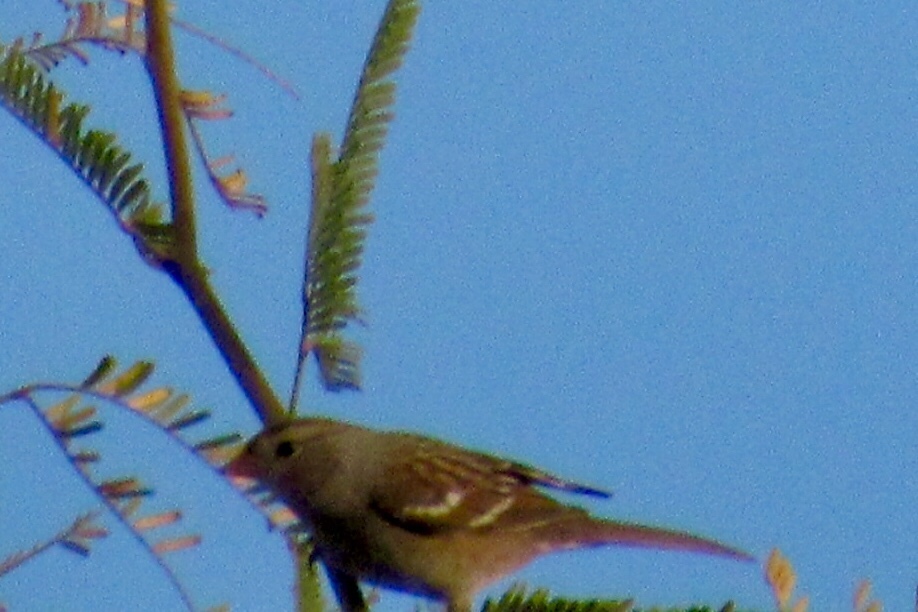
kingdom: Animalia
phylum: Chordata
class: Aves
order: Passeriformes
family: Passerellidae
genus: Zonotrichia
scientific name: Zonotrichia leucophrys
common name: White-crowned sparrow
